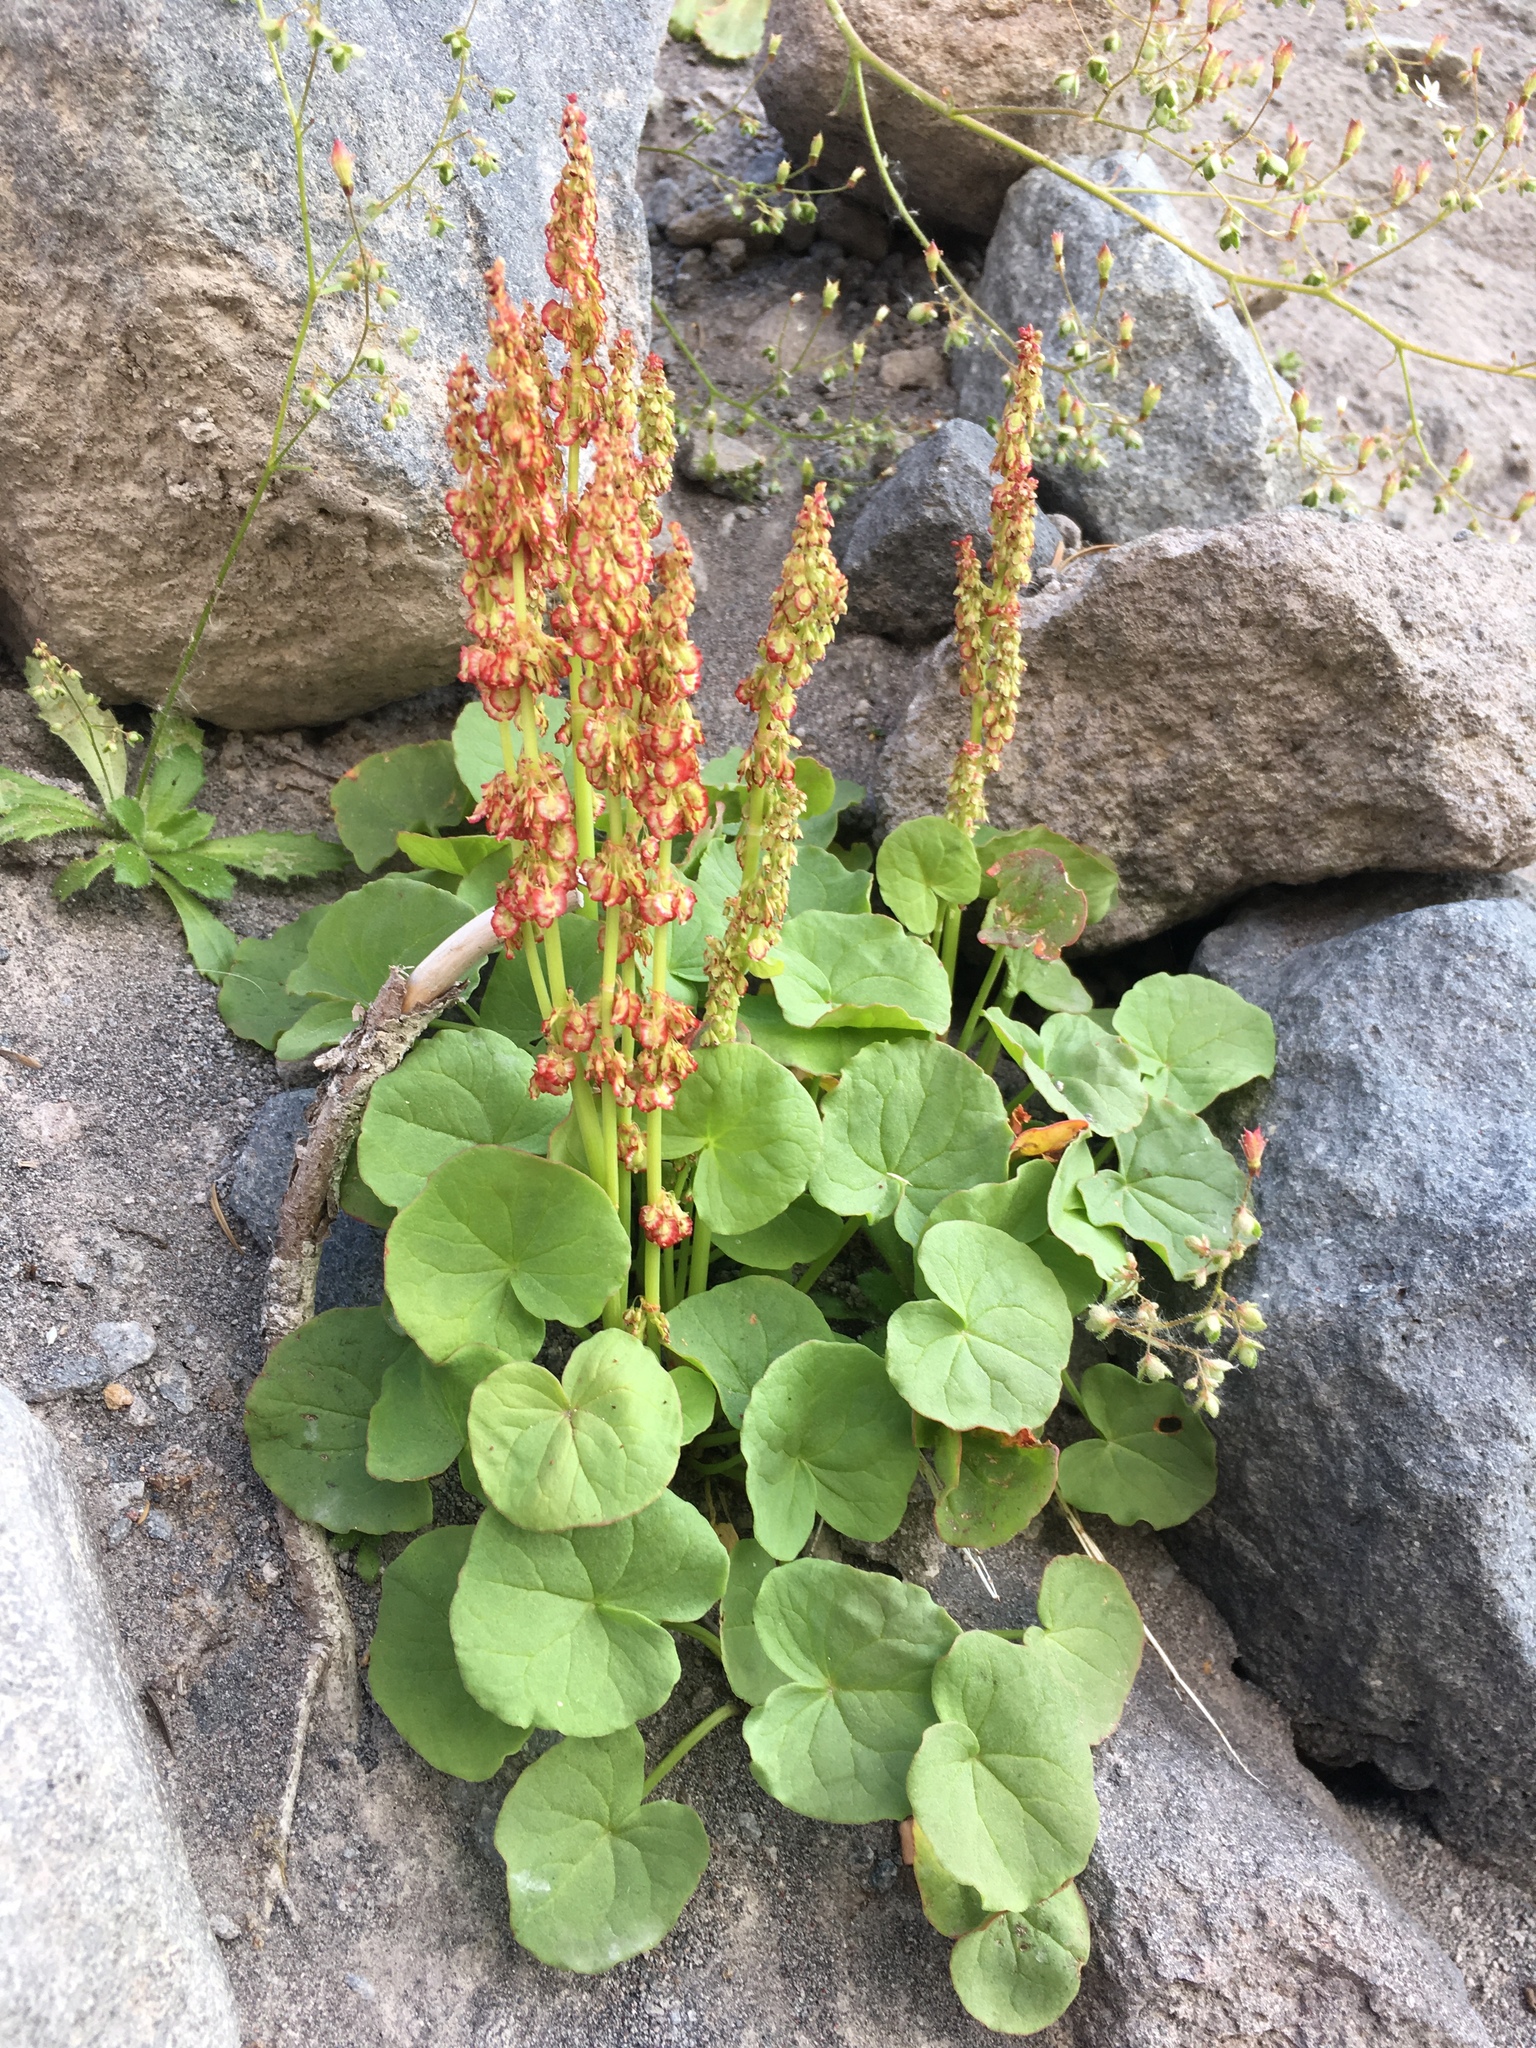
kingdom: Plantae
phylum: Tracheophyta
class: Magnoliopsida
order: Caryophyllales
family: Polygonaceae
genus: Oxyria
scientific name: Oxyria digyna
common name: Alpine mountain-sorrel
